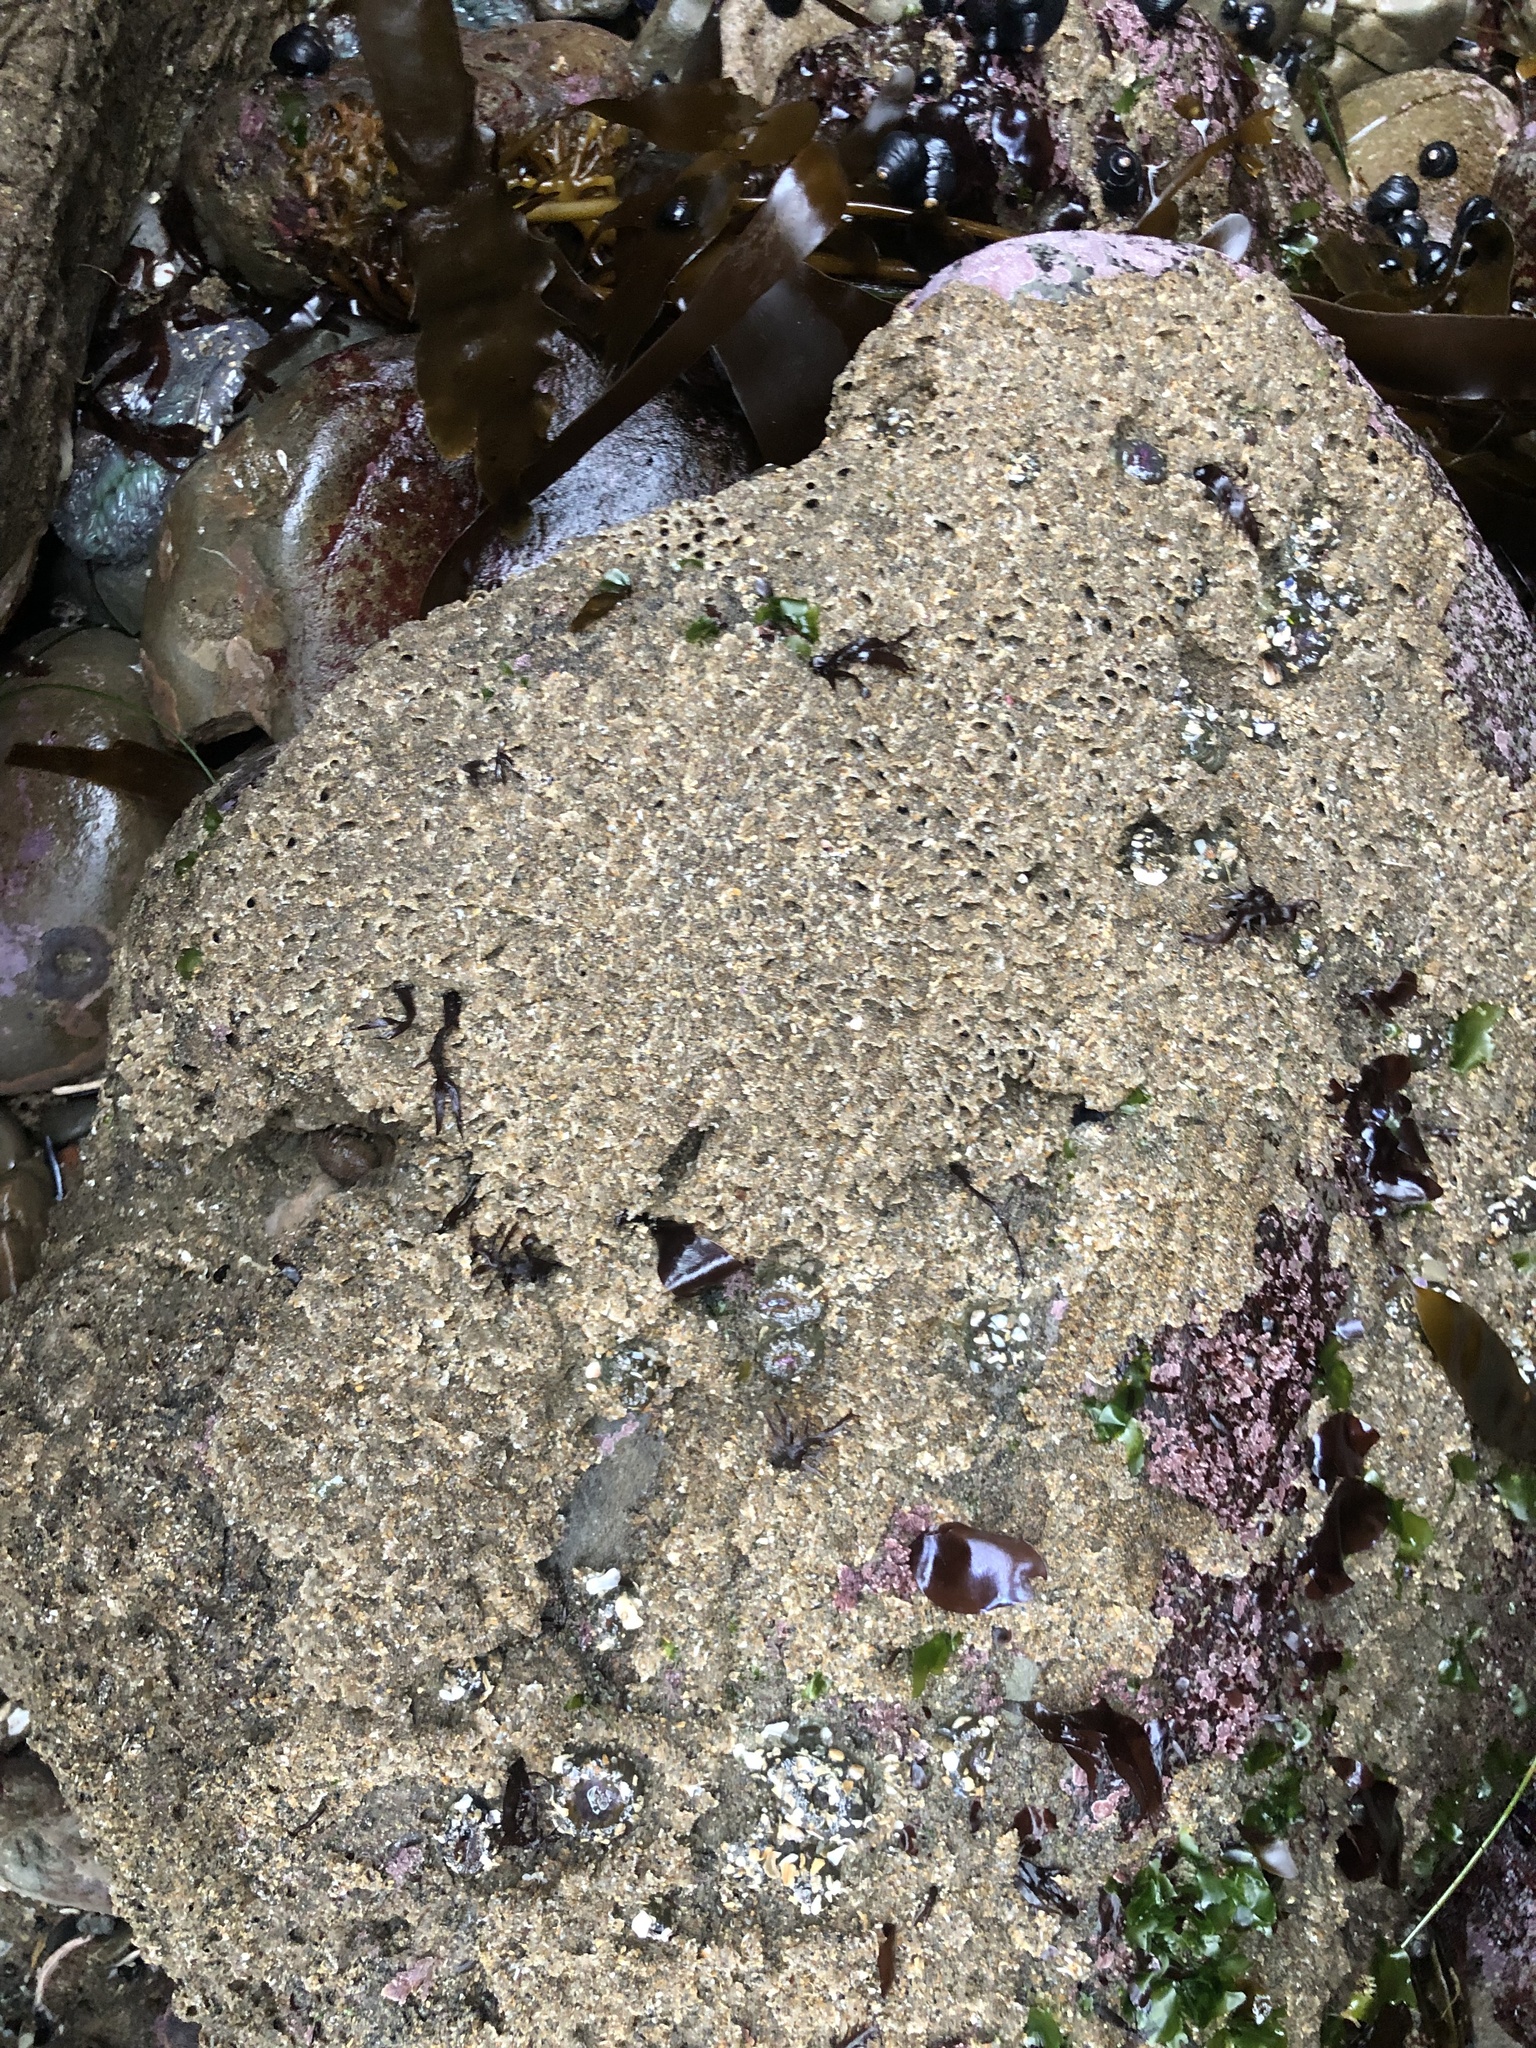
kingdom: Animalia
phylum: Annelida
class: Polychaeta
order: Sabellida
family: Sabellariidae
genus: Phragmatopoma
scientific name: Phragmatopoma californica
